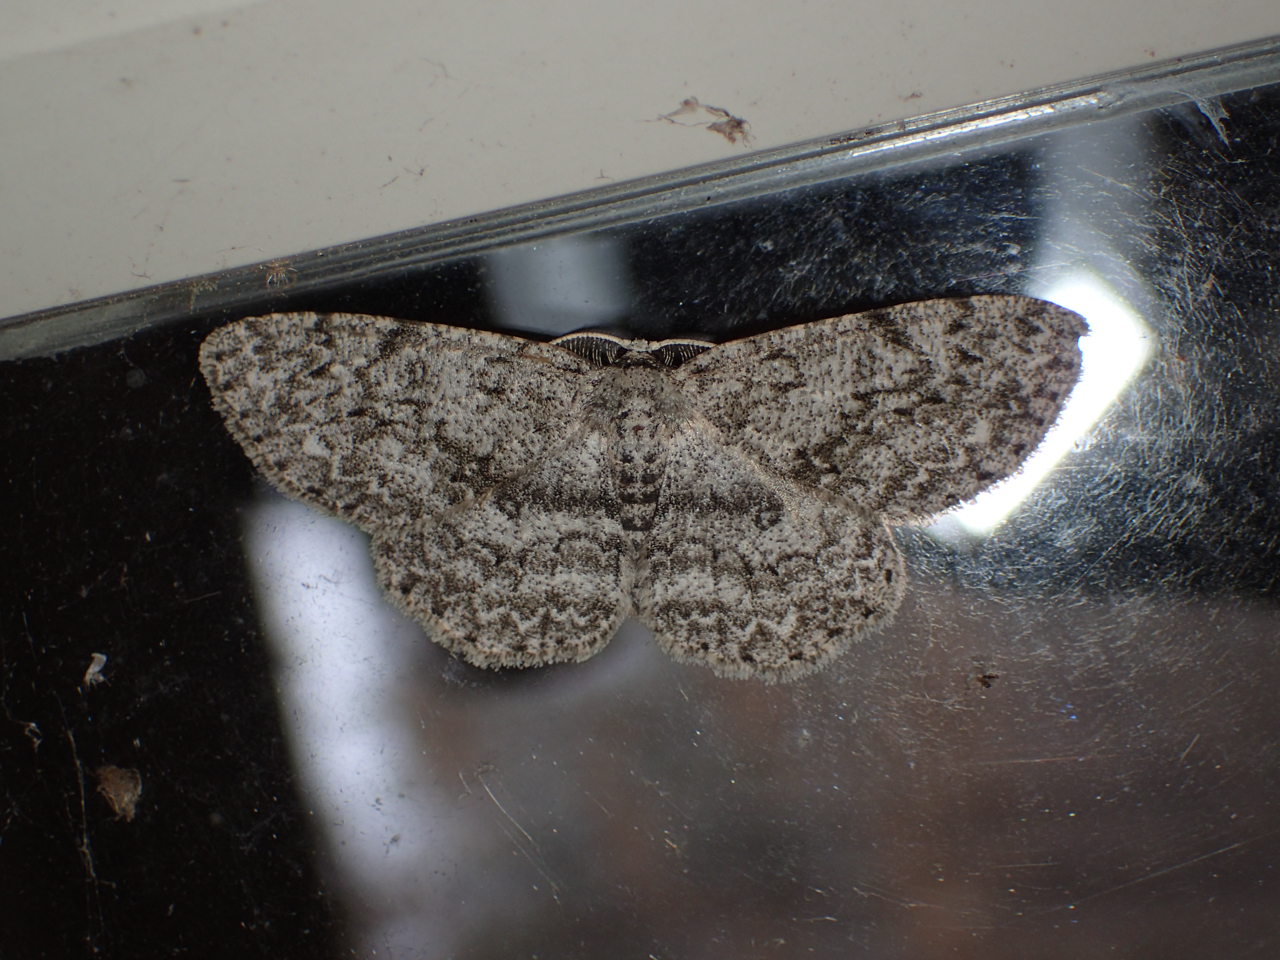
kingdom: Animalia
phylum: Arthropoda
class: Insecta
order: Lepidoptera
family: Geometridae
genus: Ectropis
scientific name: Ectropis crepuscularia
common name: Engrailed
